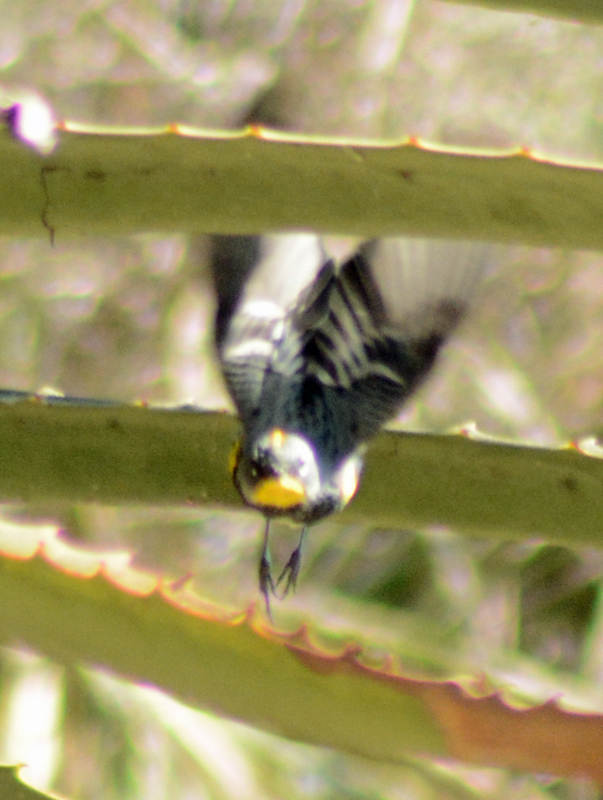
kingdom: Animalia
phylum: Chordata
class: Aves
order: Passeriformes
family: Parulidae
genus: Setophaga
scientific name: Setophaga coronata
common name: Myrtle warbler
